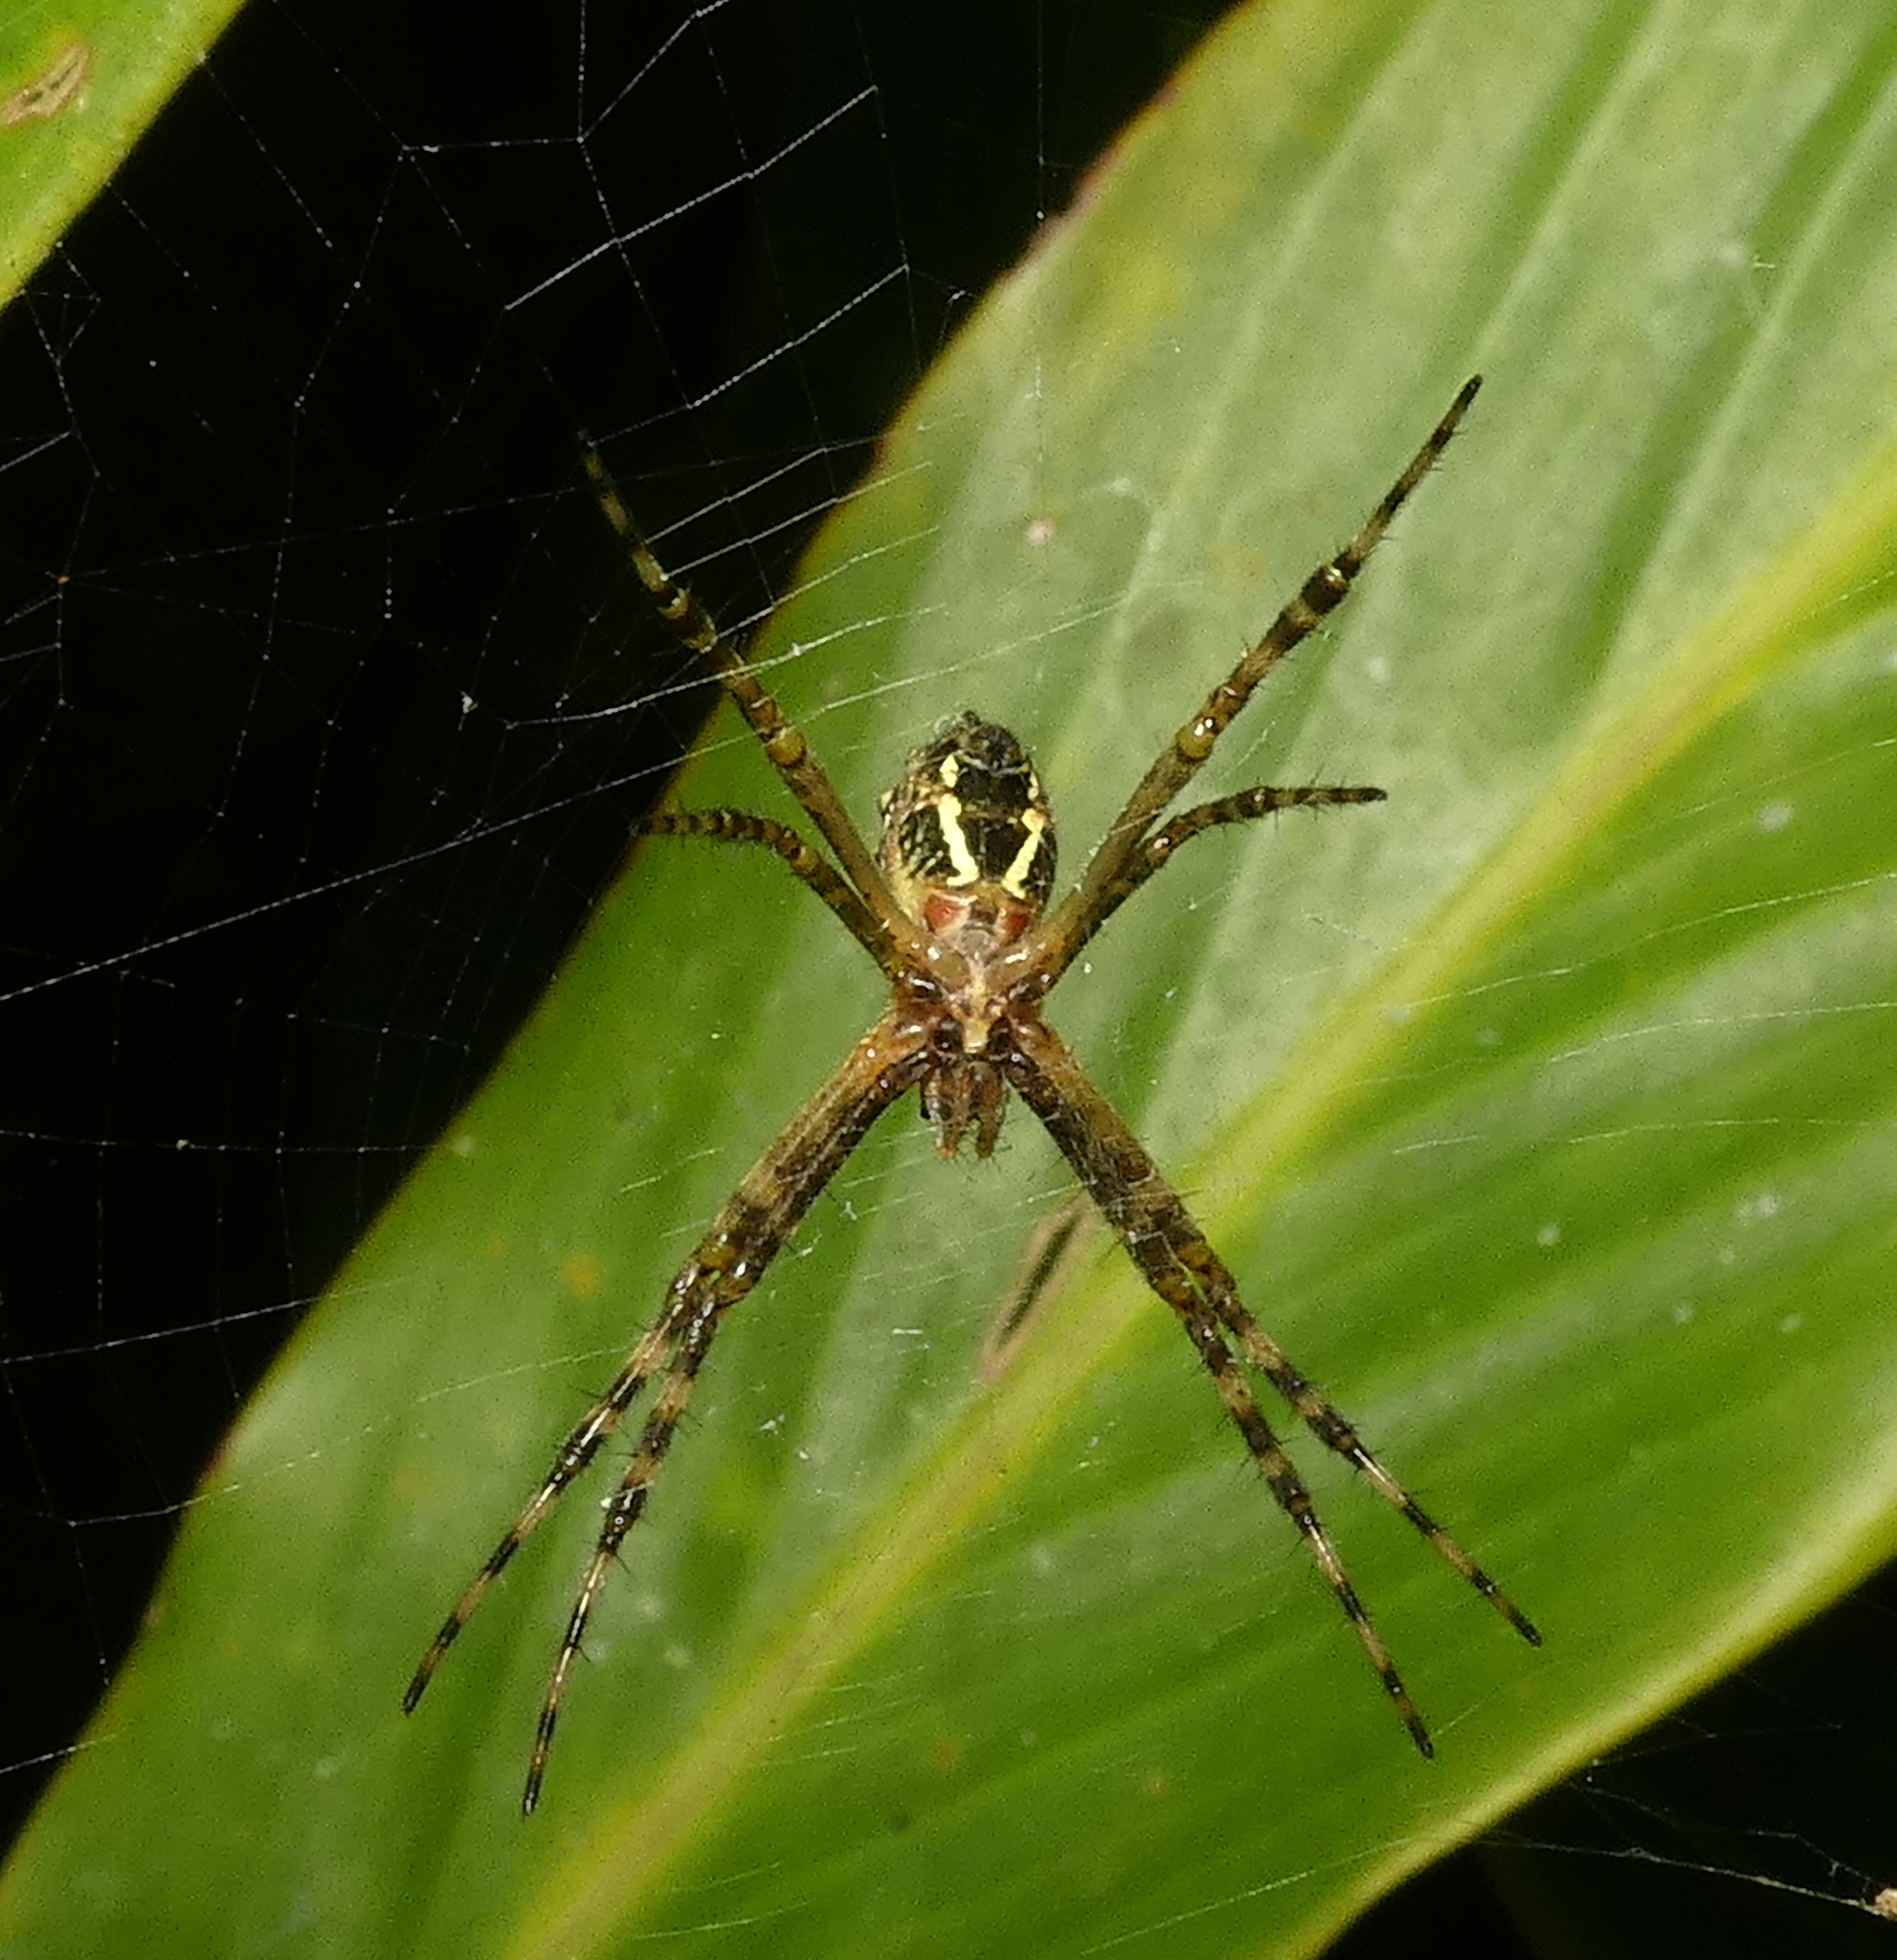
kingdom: Animalia
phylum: Arthropoda
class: Arachnida
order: Araneae
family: Araneidae
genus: Argiope
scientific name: Argiope argentata
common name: Orb weavers
